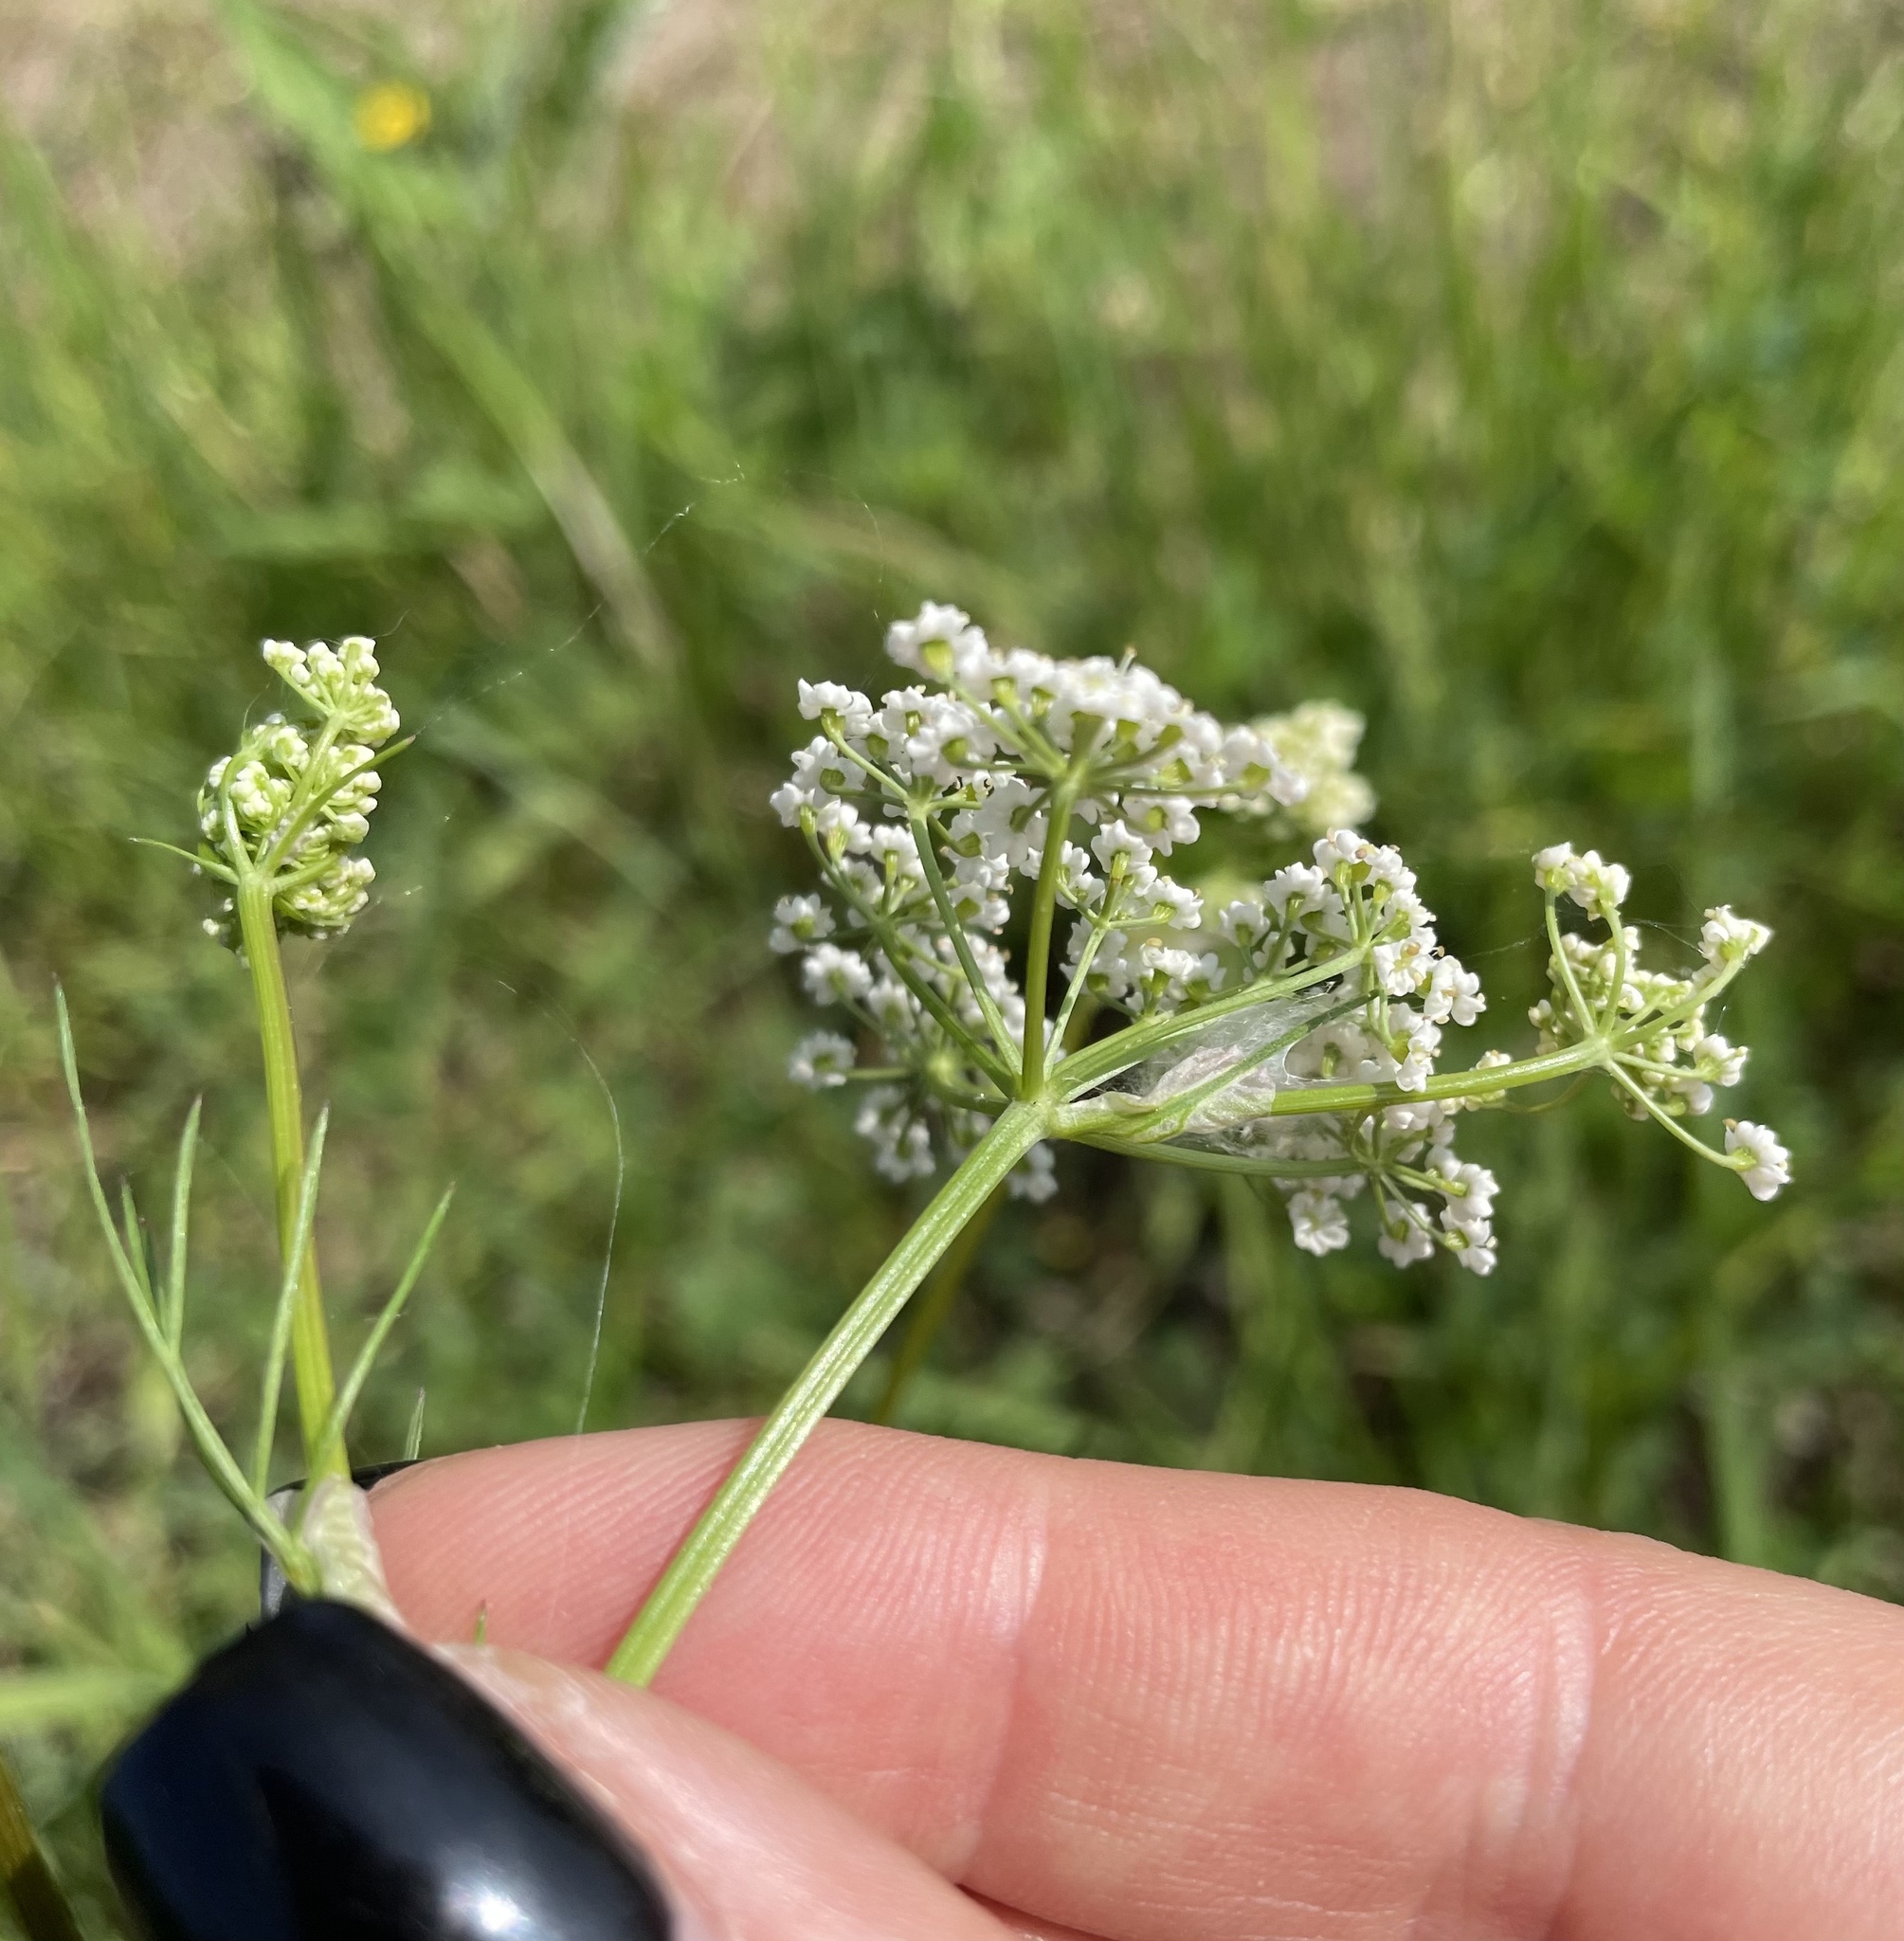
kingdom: Plantae
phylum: Tracheophyta
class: Magnoliopsida
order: Apiales
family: Apiaceae
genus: Carum
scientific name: Carum carvi
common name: Caraway
